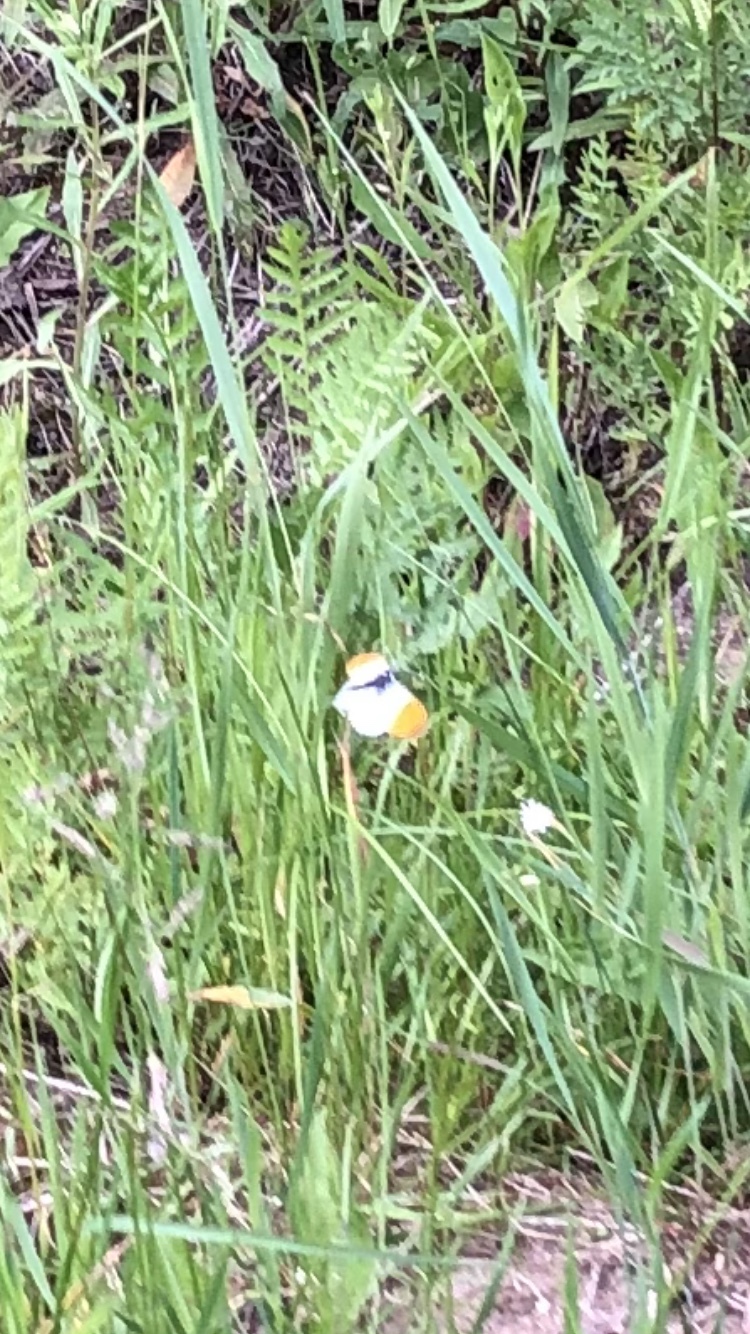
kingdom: Animalia
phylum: Arthropoda
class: Insecta
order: Lepidoptera
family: Pieridae
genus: Anthocharis
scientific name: Anthocharis cardamines
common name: Orange-tip
